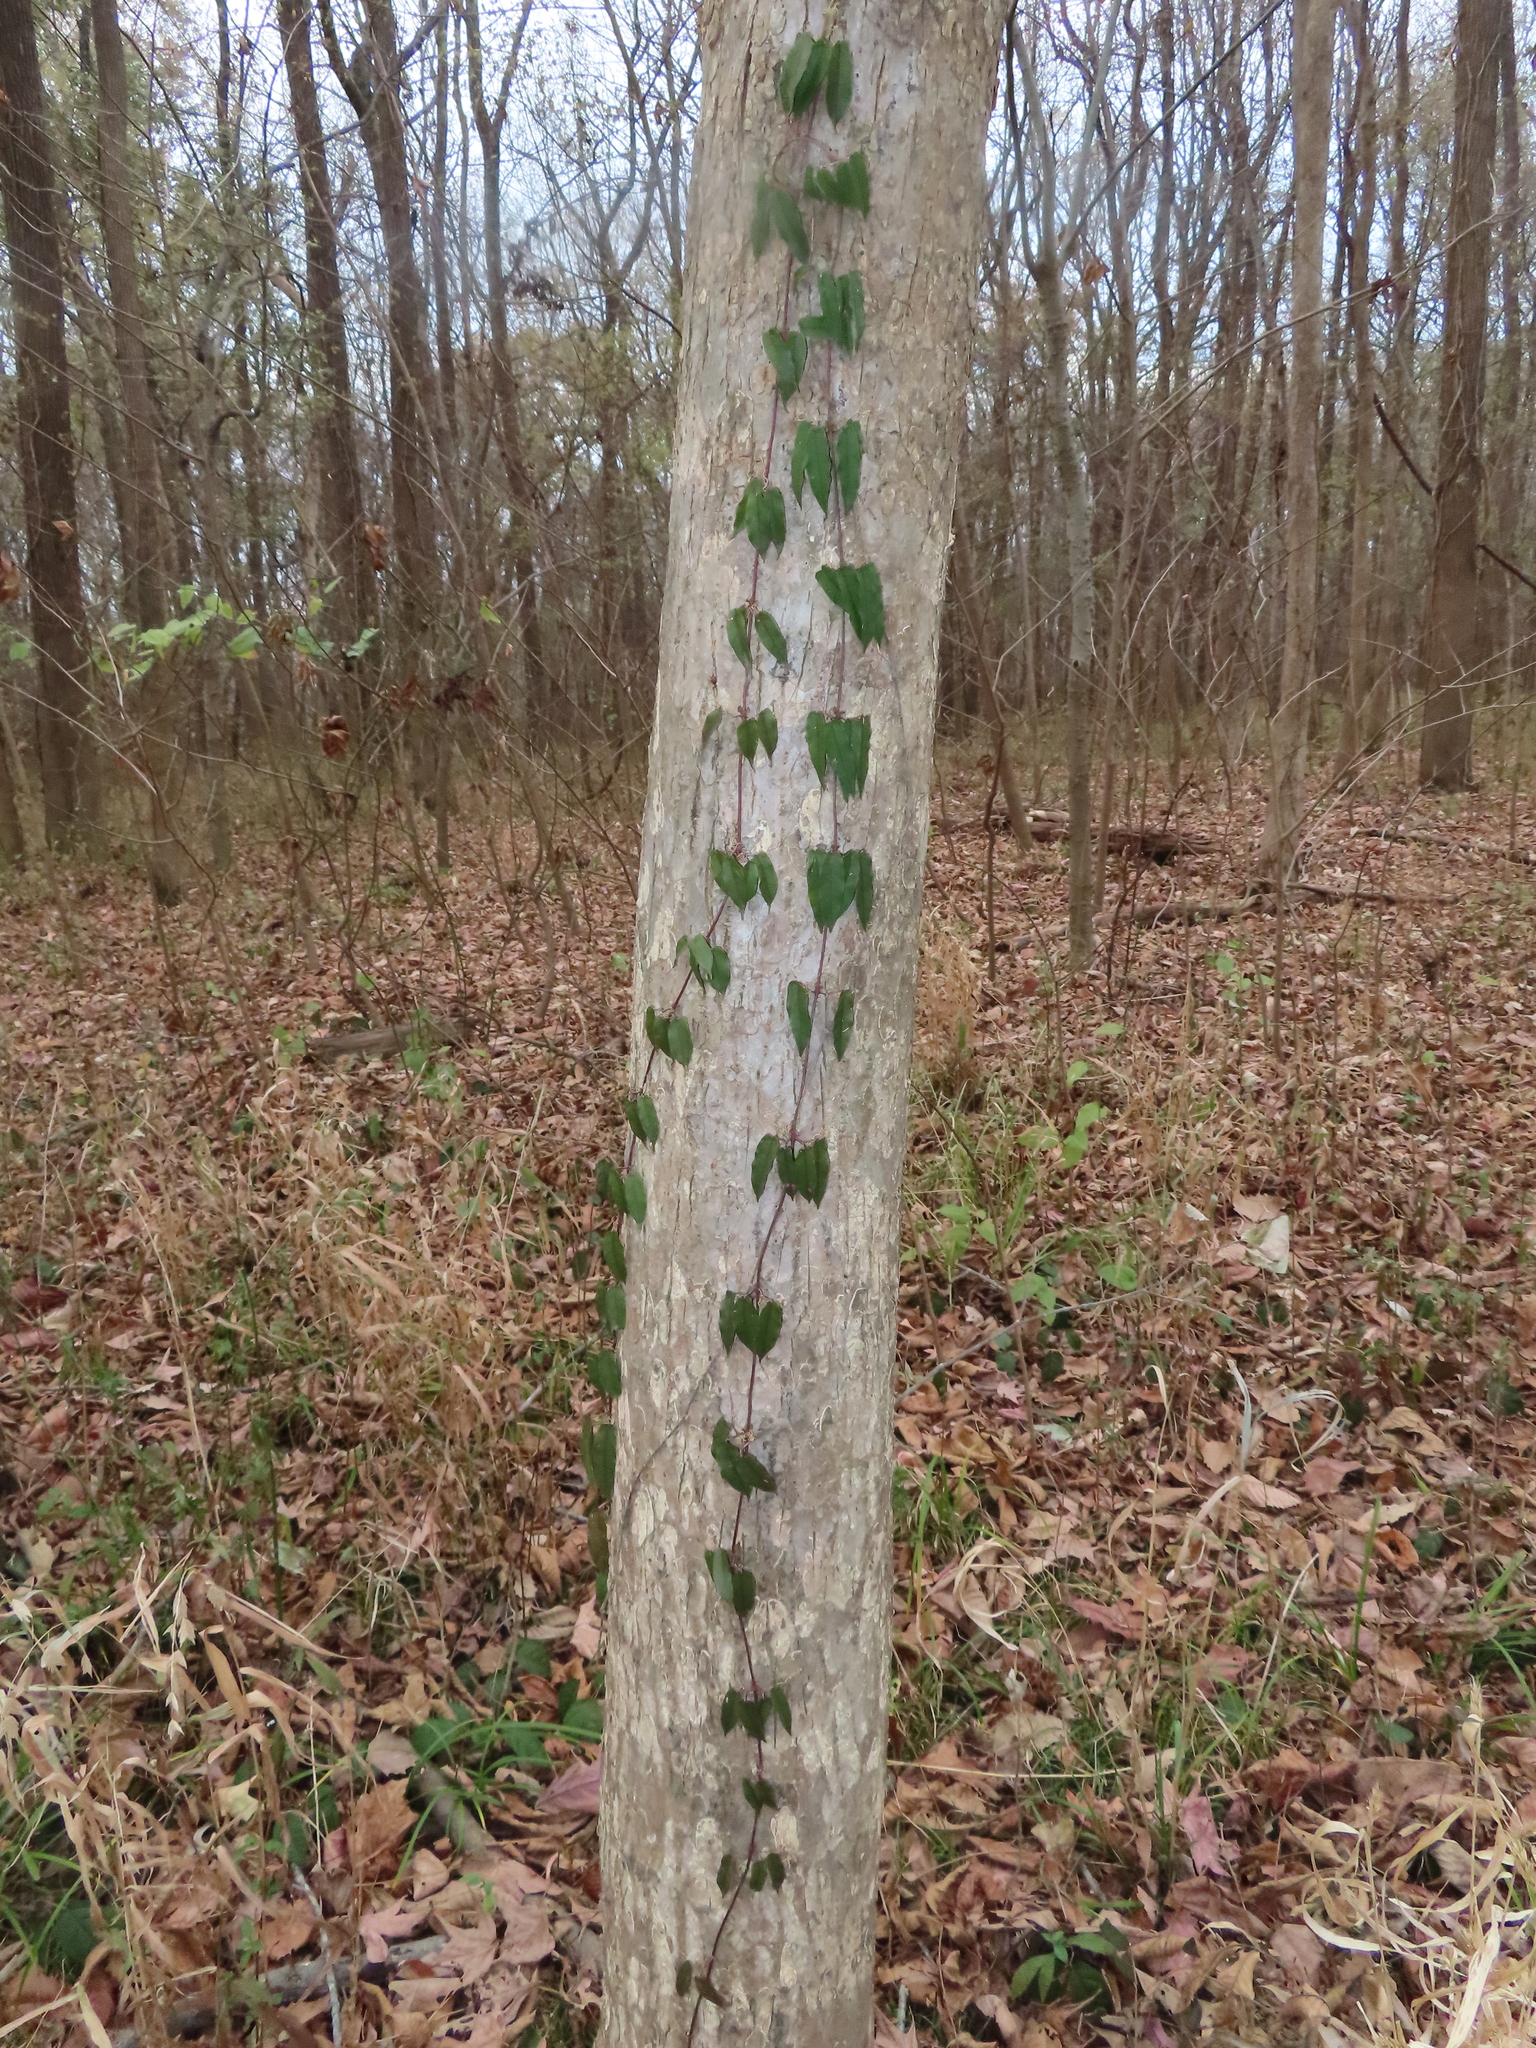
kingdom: Plantae
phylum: Tracheophyta
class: Magnoliopsida
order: Lamiales
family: Bignoniaceae
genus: Bignonia
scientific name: Bignonia capreolata
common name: Crossvine
